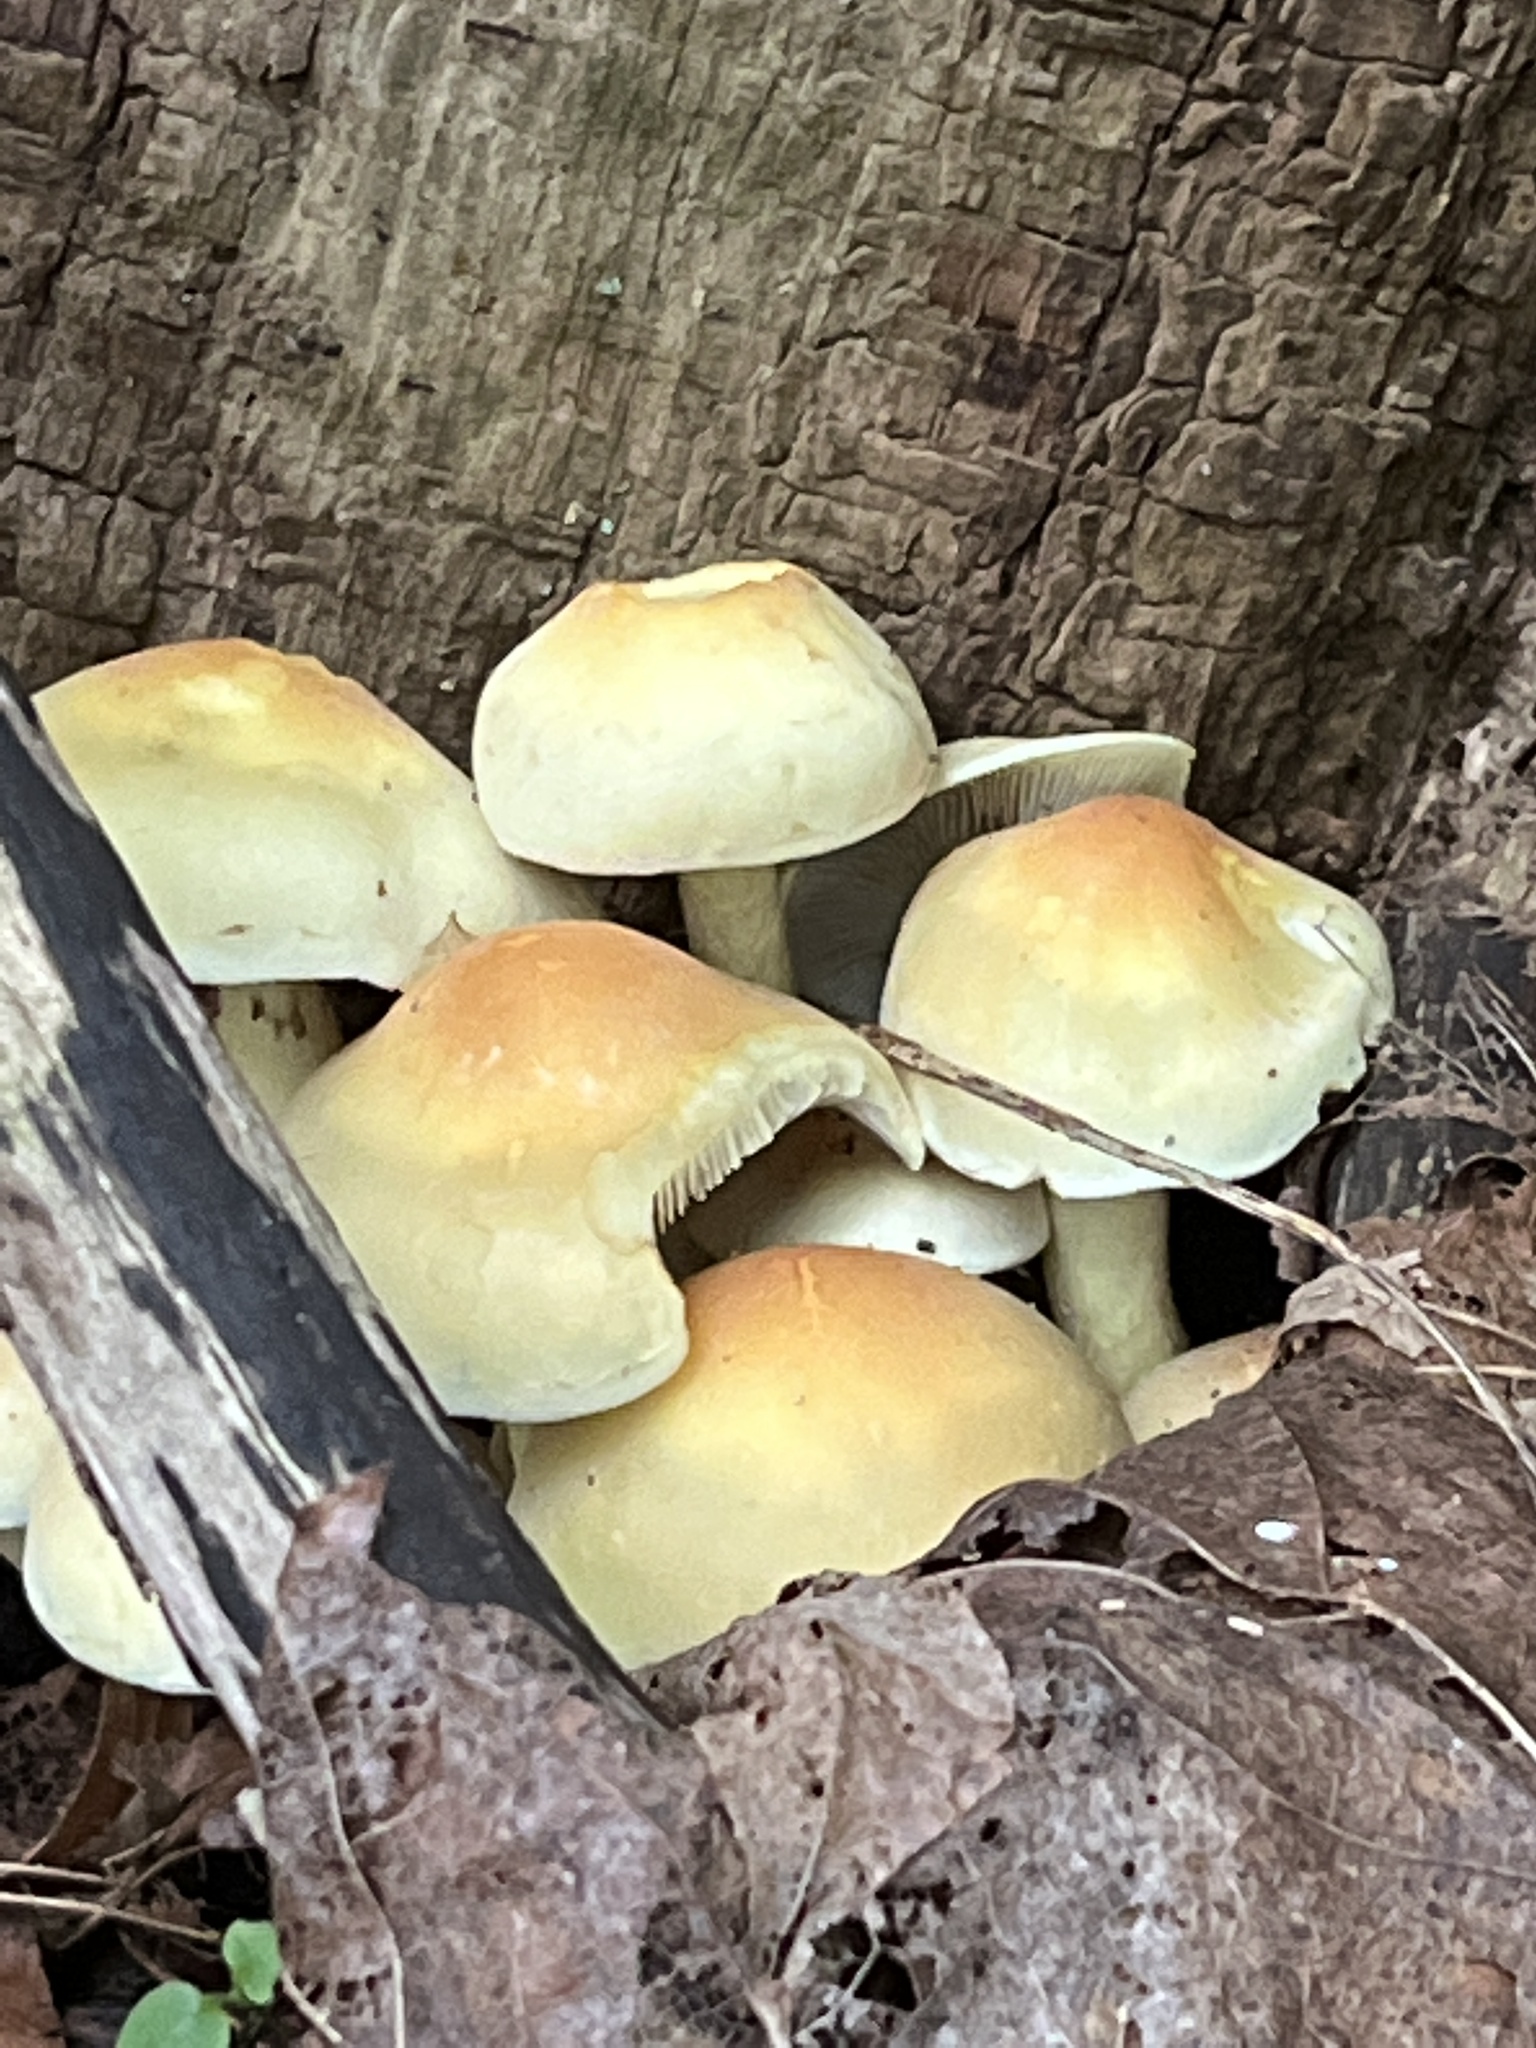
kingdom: Fungi
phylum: Basidiomycota
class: Agaricomycetes
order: Agaricales
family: Strophariaceae
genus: Hypholoma
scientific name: Hypholoma fasciculare
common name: Sulphur tuft
